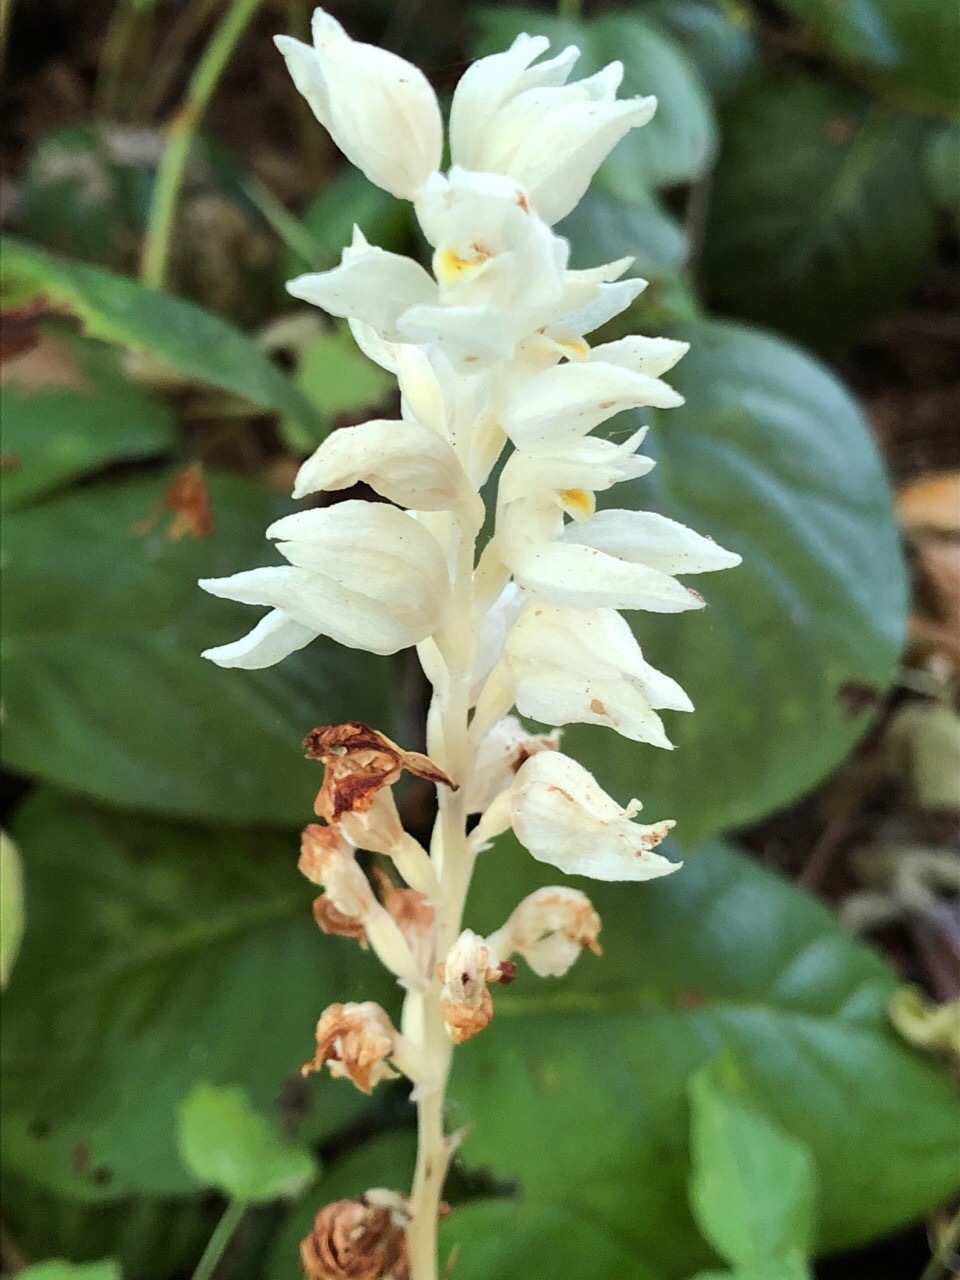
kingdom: Plantae
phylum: Tracheophyta
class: Liliopsida
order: Asparagales
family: Orchidaceae
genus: Cephalanthera
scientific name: Cephalanthera austiniae
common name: Phantom orchid
